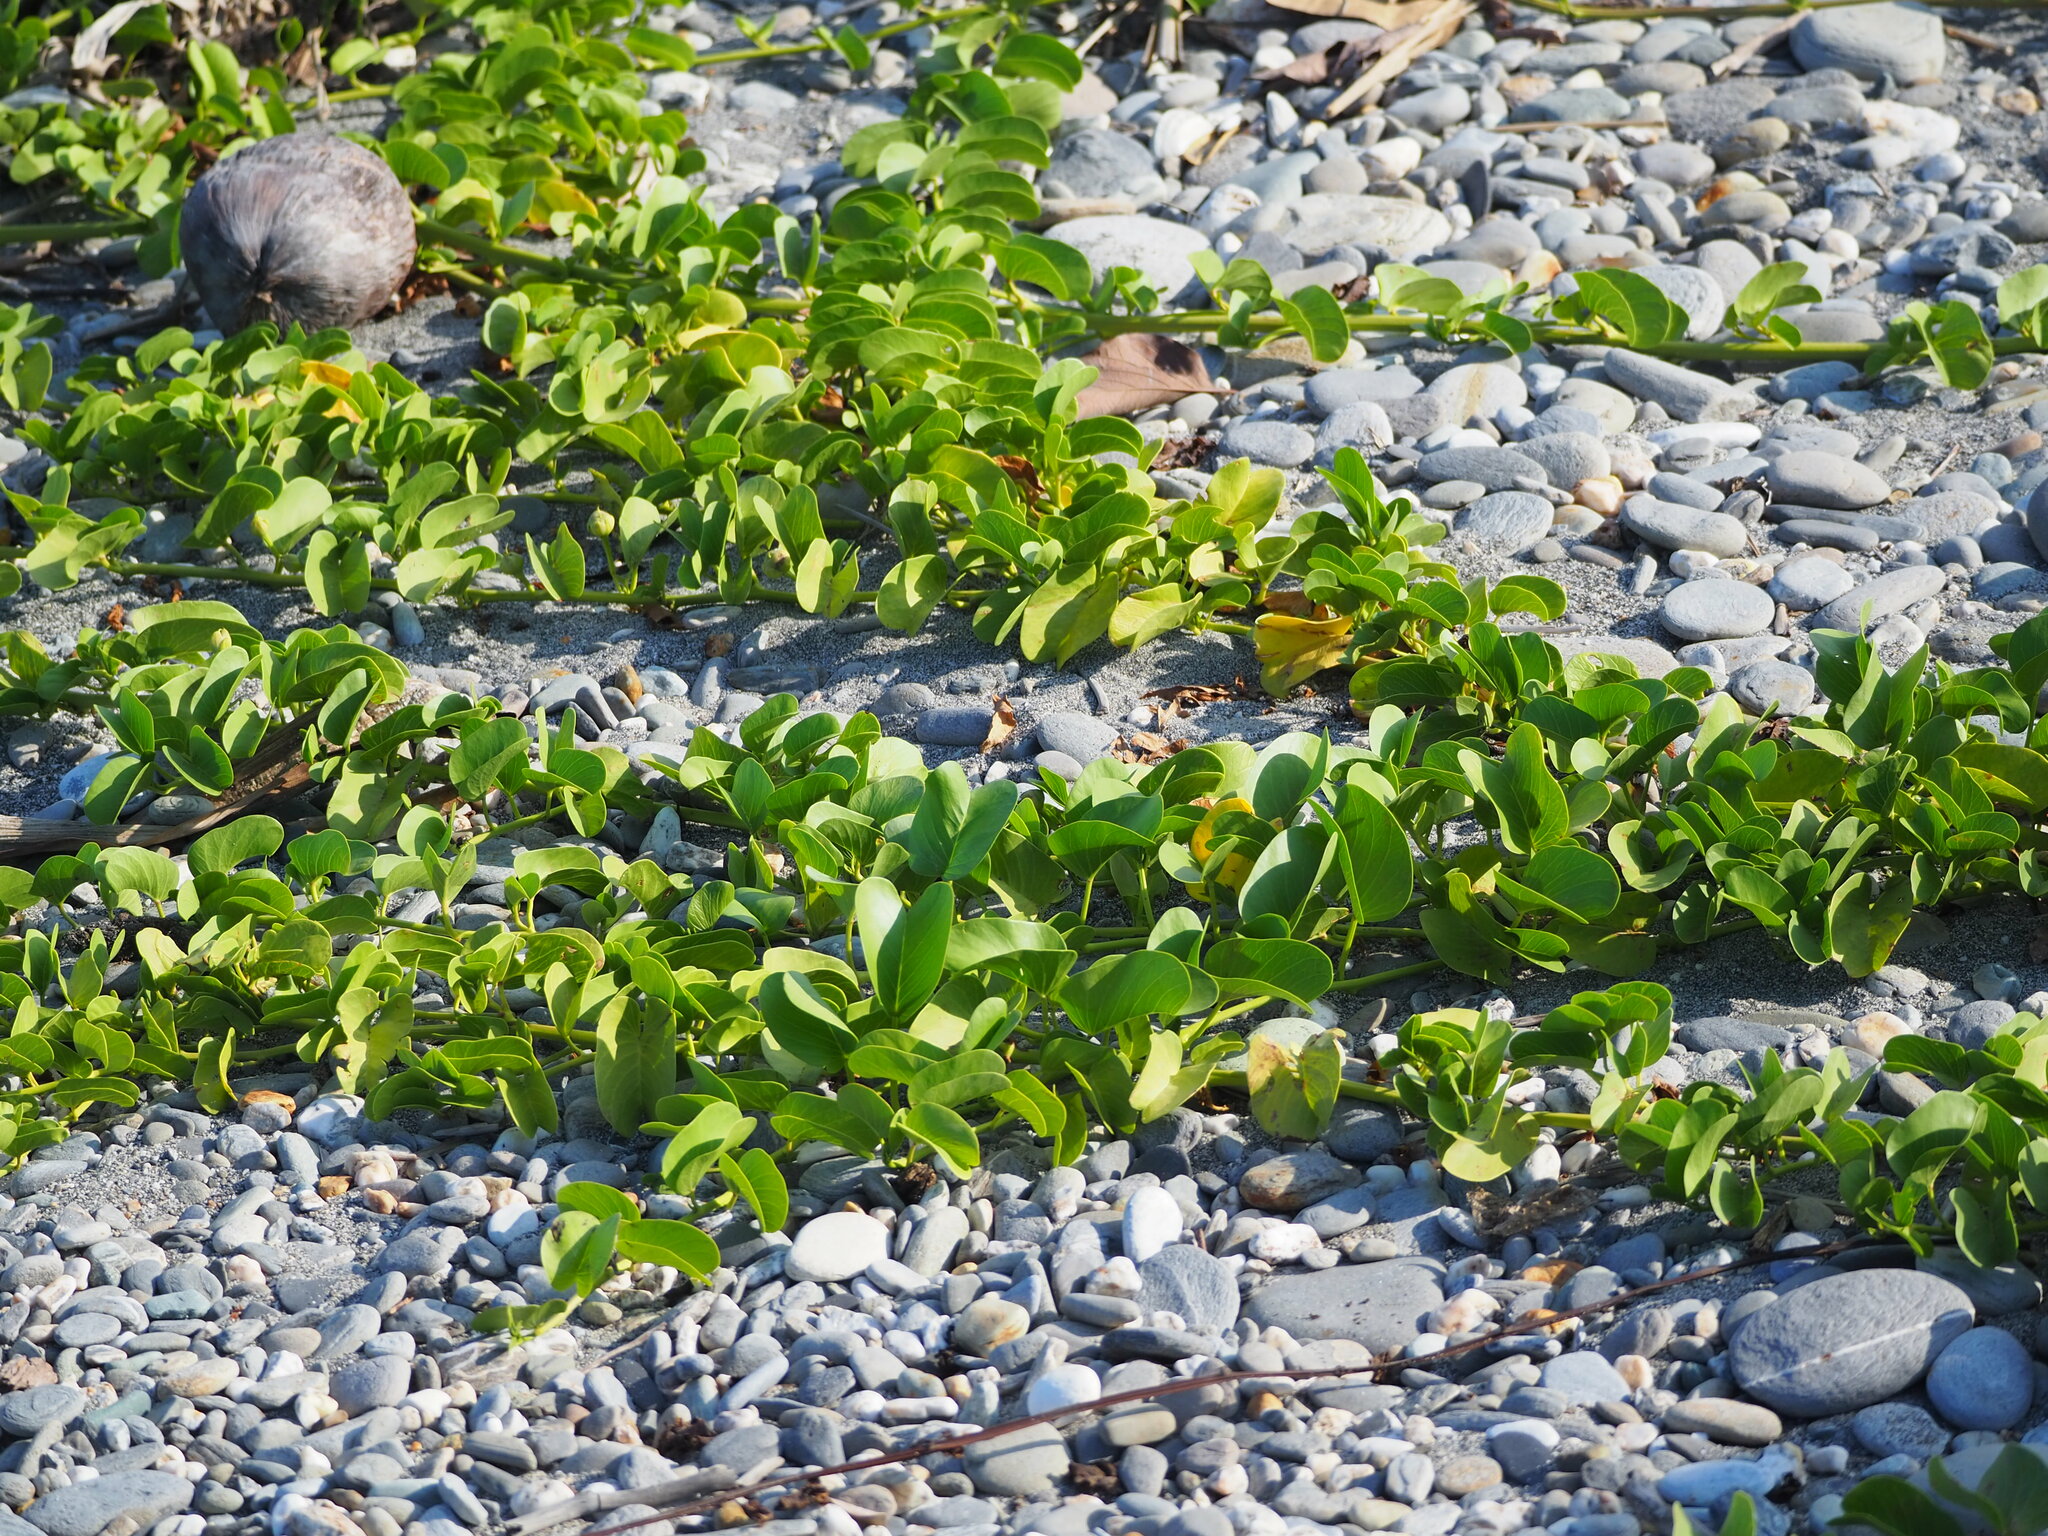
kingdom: Plantae
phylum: Tracheophyta
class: Magnoliopsida
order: Solanales
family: Convolvulaceae
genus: Ipomoea
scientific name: Ipomoea pes-caprae
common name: Beach morning glory
